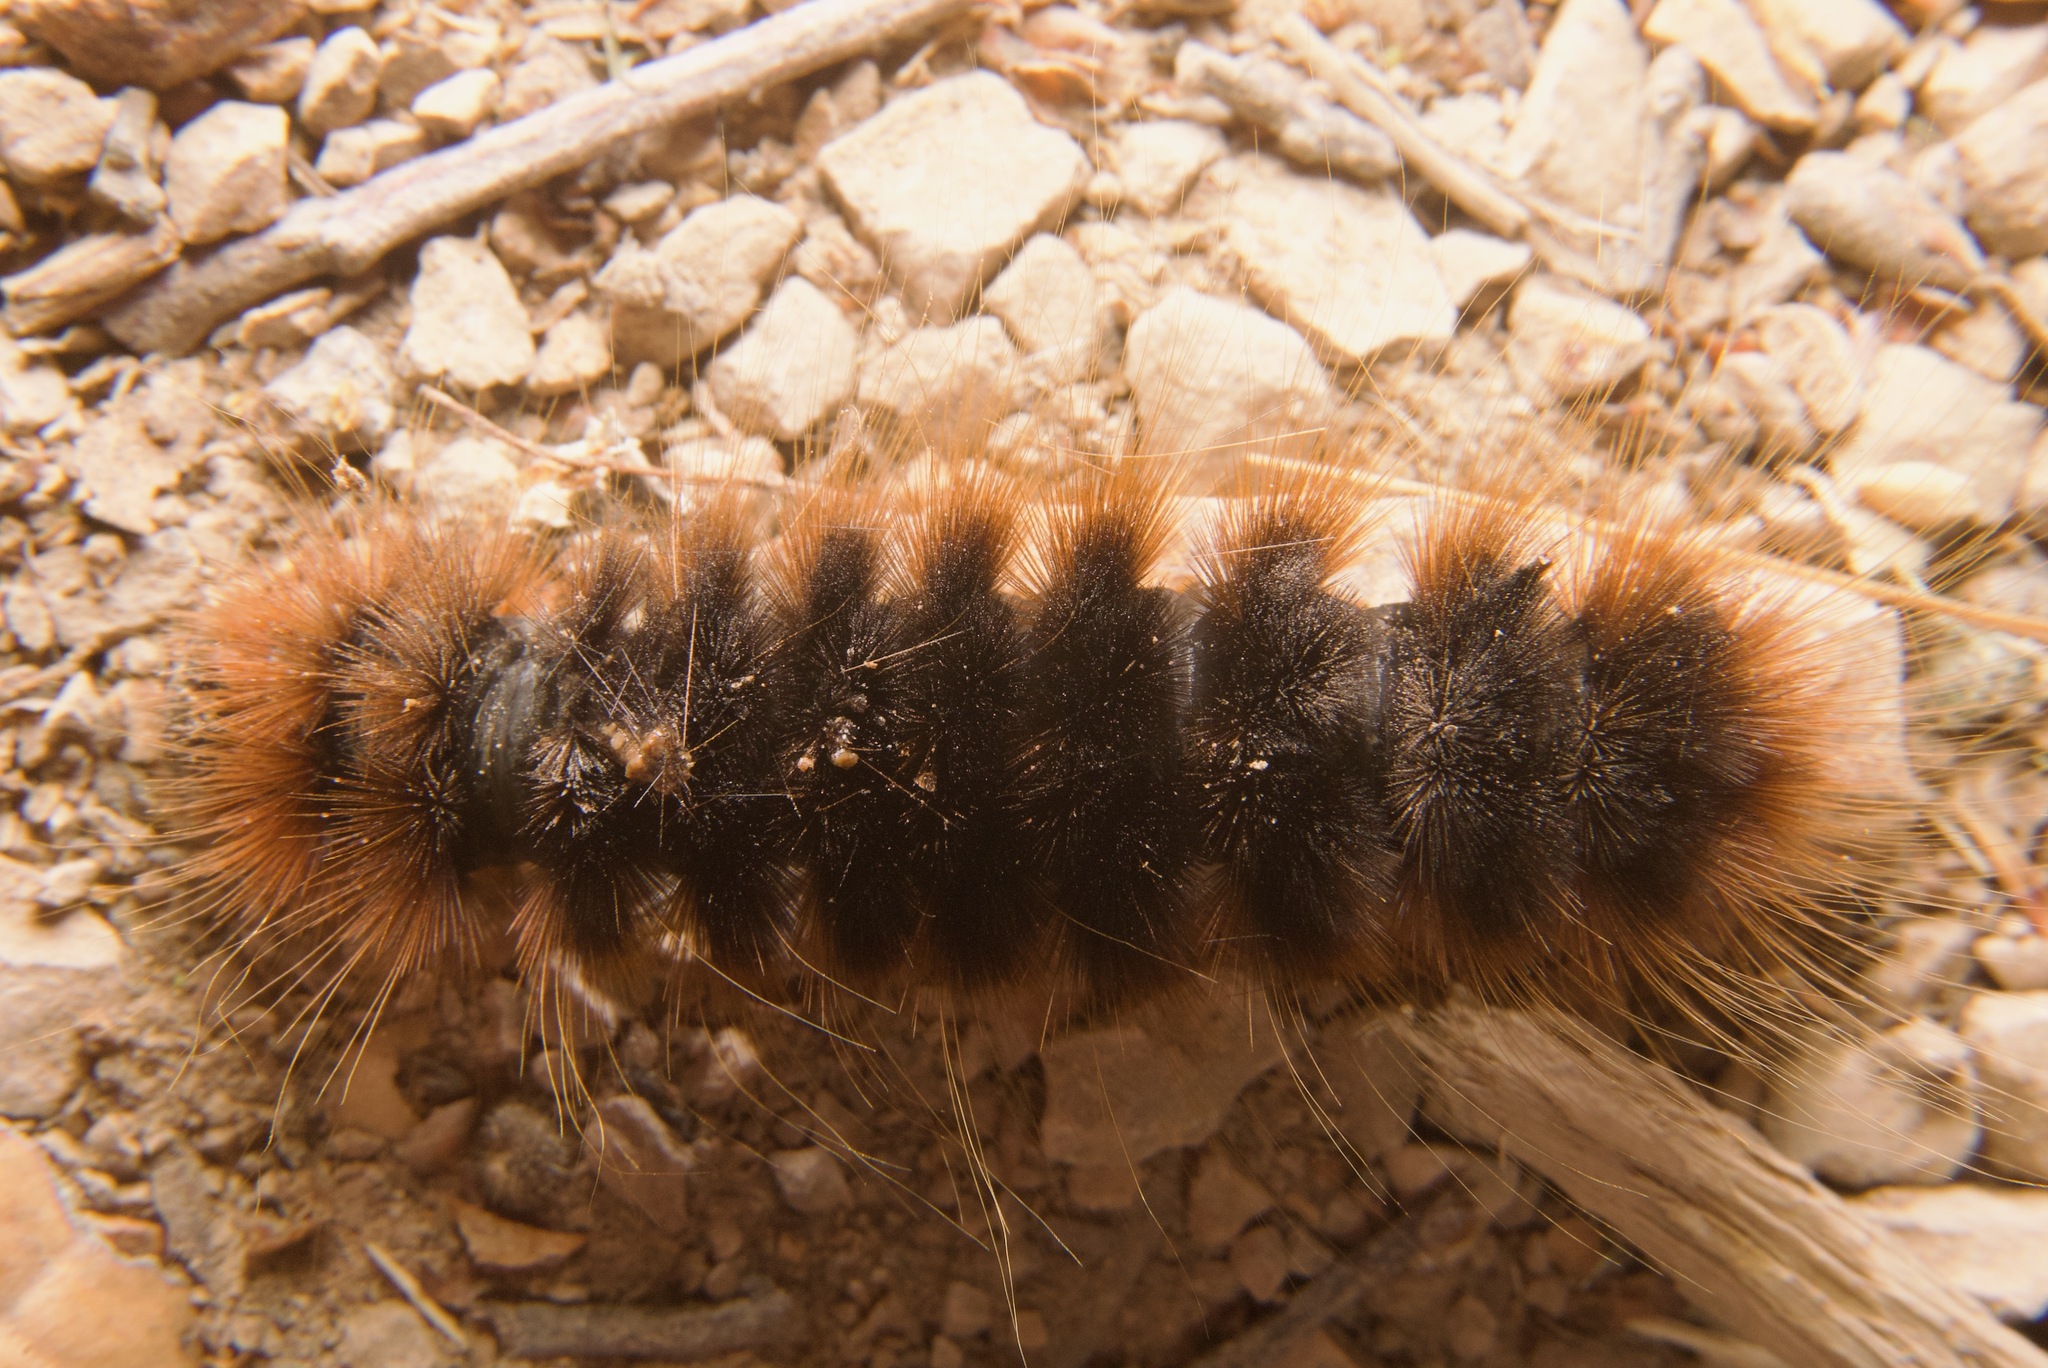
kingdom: Animalia
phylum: Arthropoda
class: Insecta
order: Lepidoptera
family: Erebidae
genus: Hemihyalea
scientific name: Hemihyalea edwardsii
